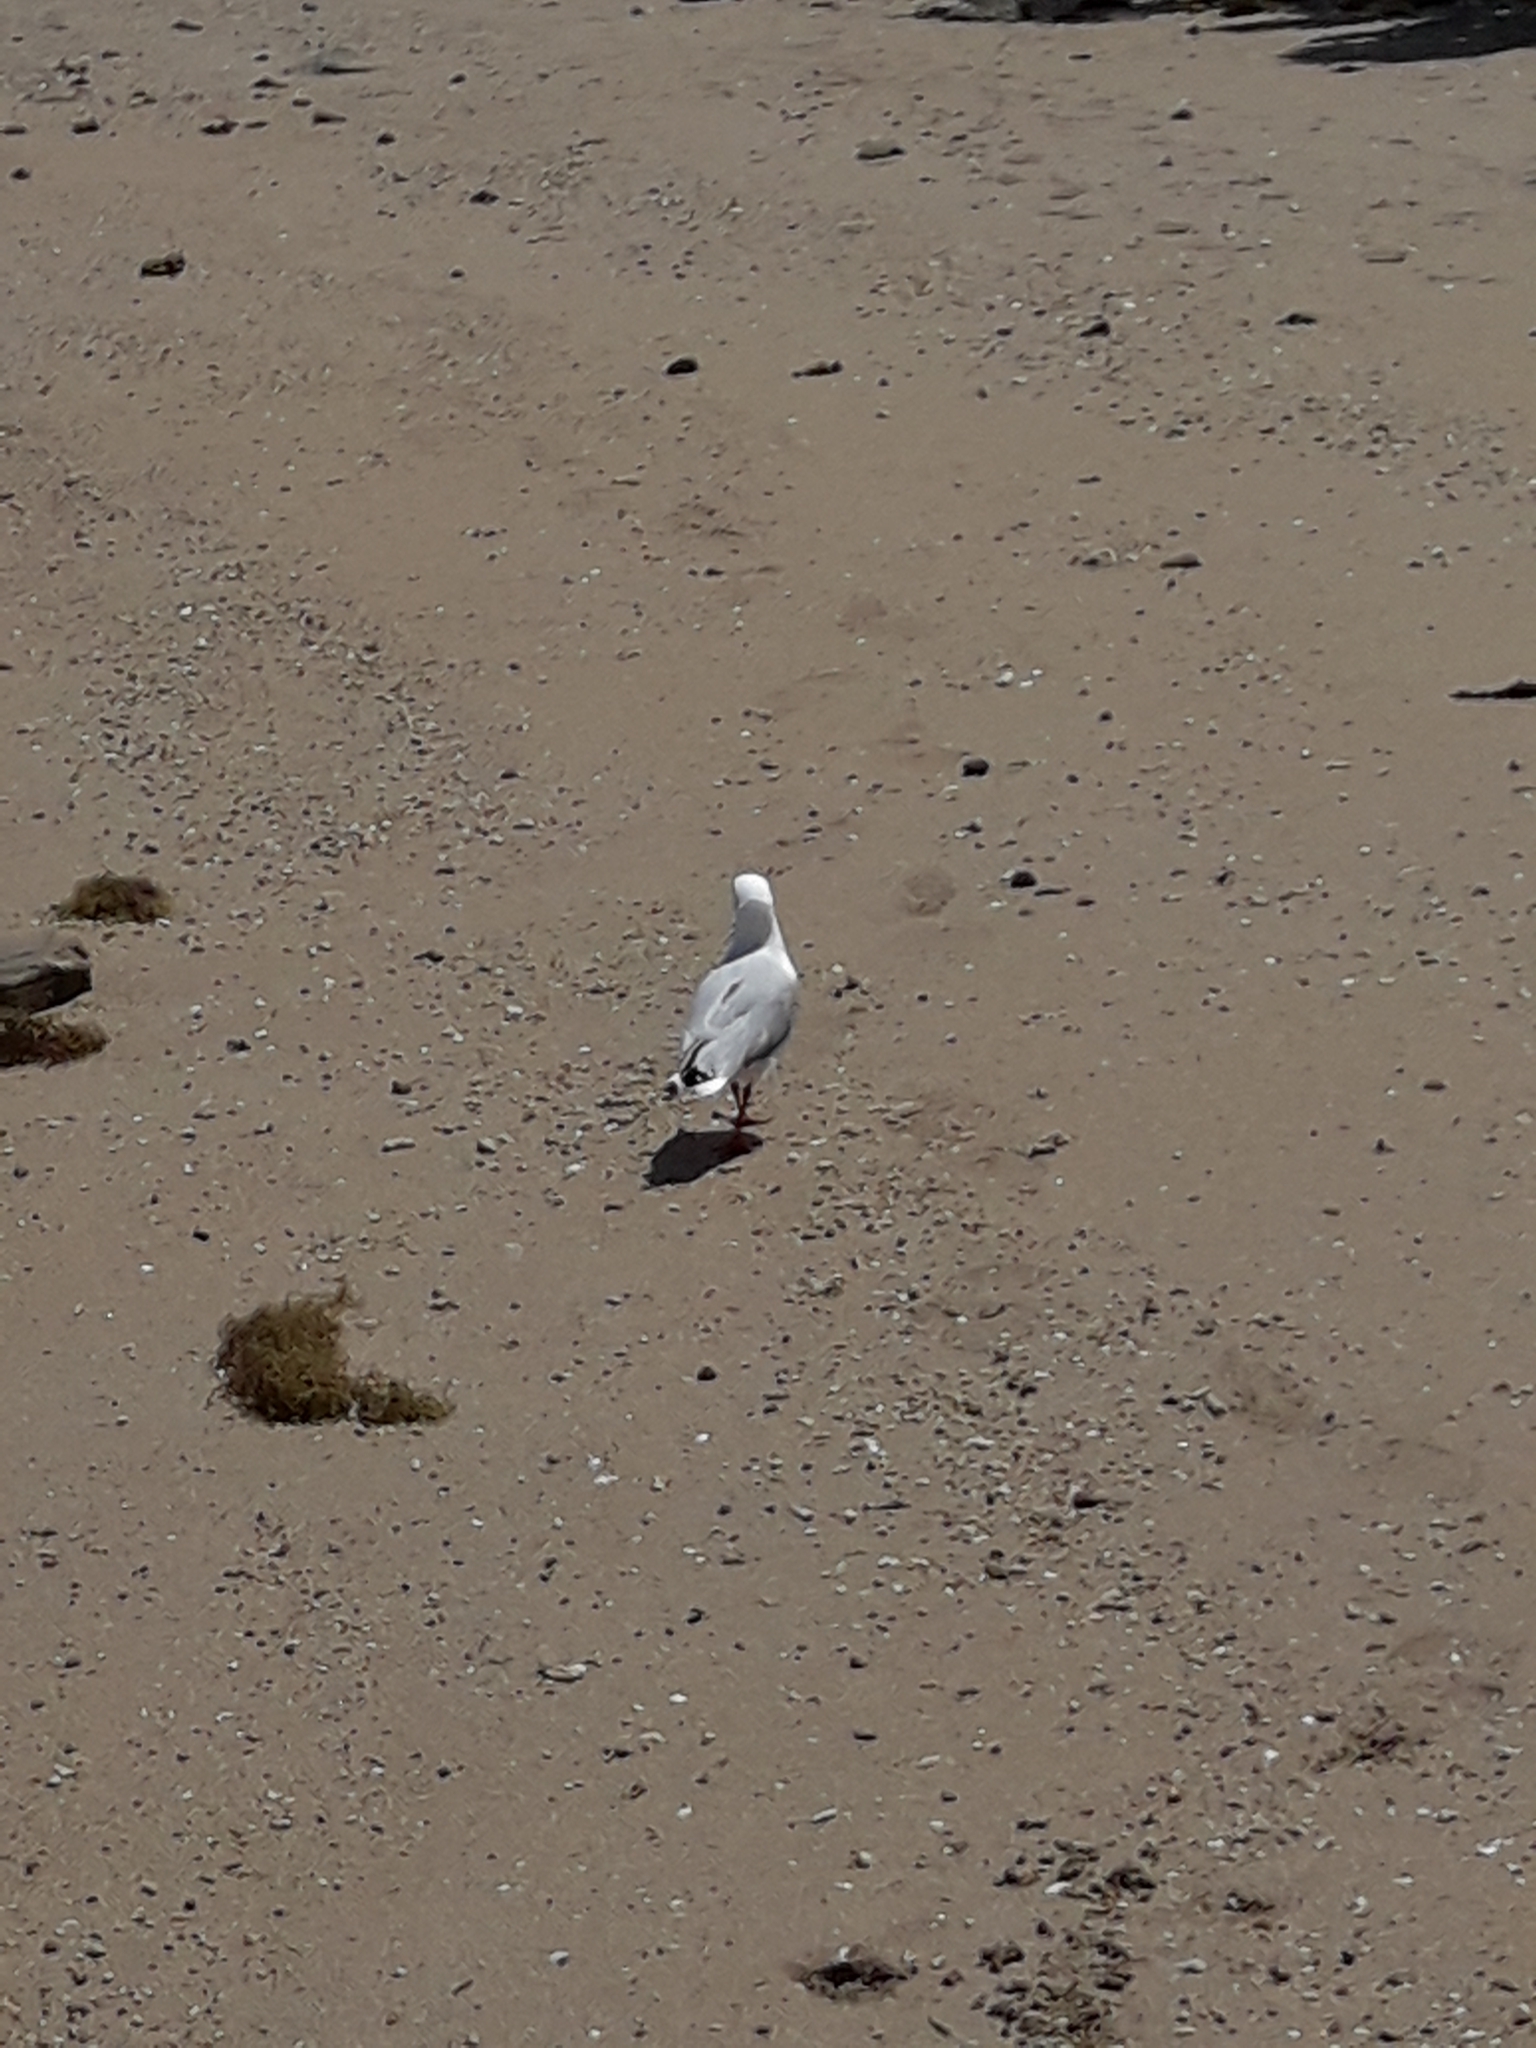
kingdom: Animalia
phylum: Chordata
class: Aves
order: Charadriiformes
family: Laridae
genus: Chroicocephalus
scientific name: Chroicocephalus novaehollandiae
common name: Silver gull
